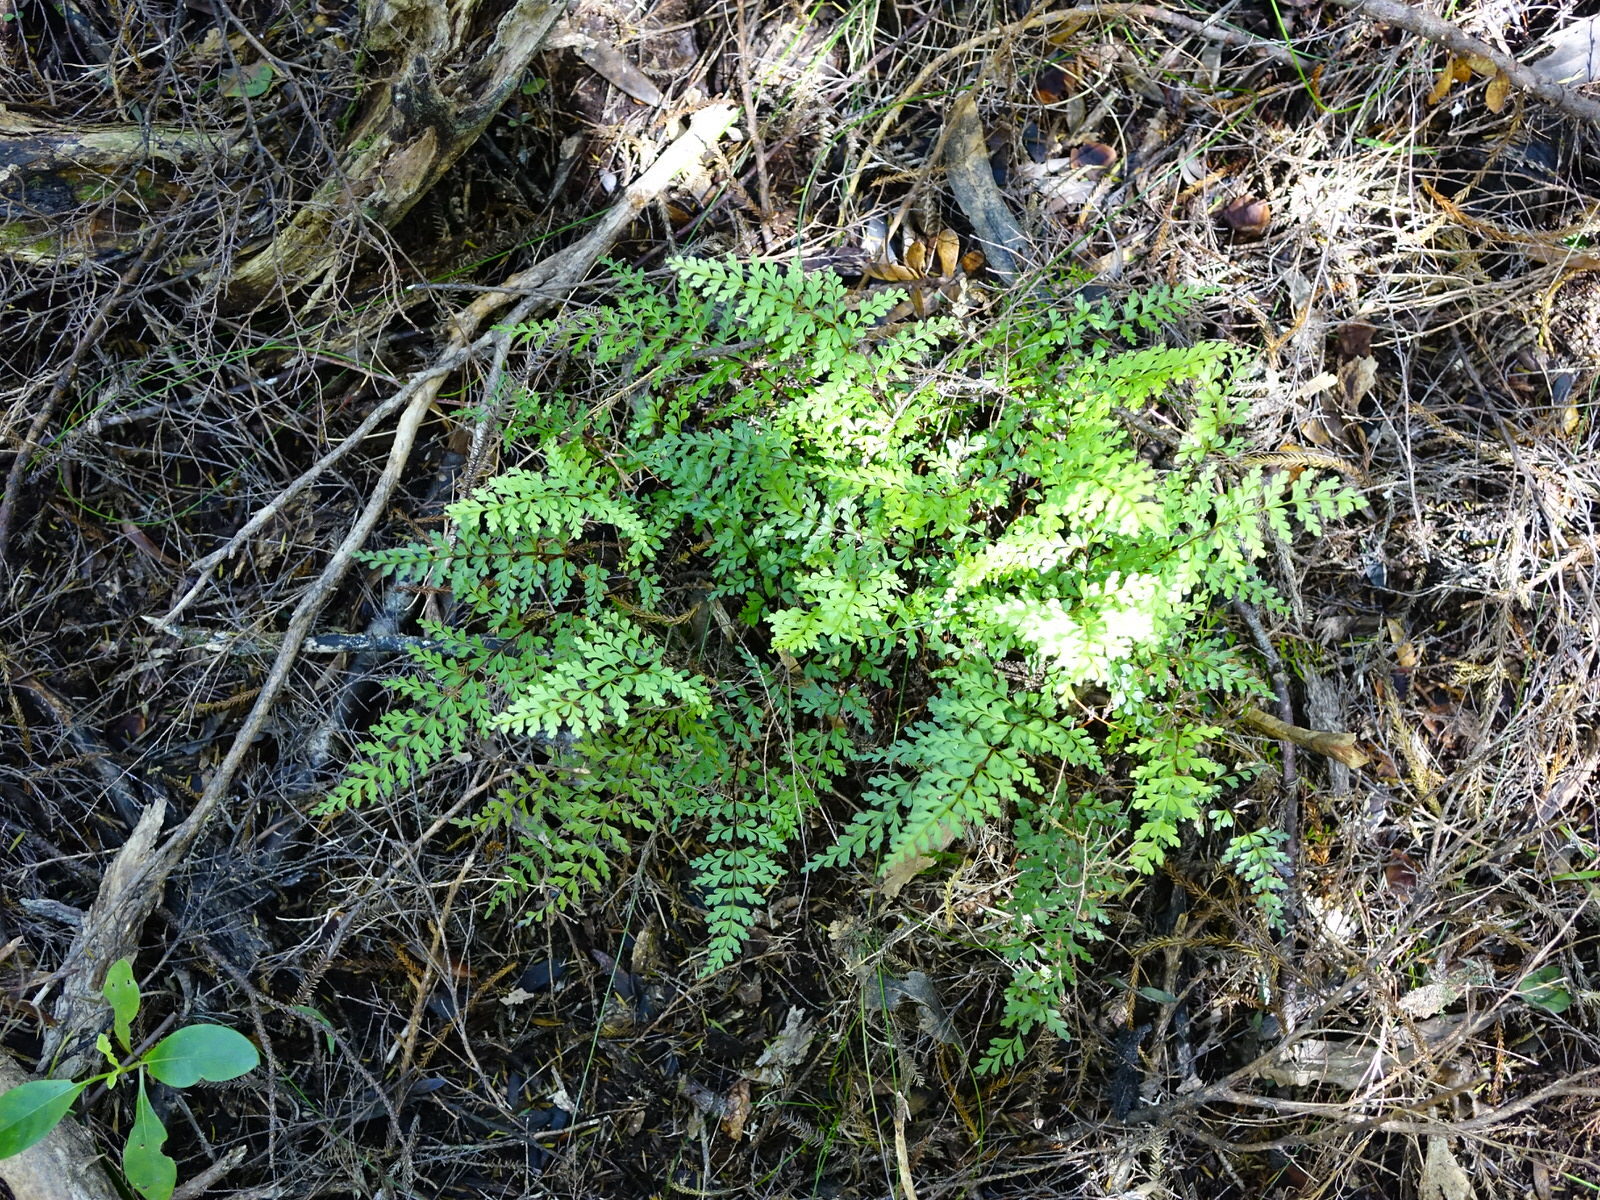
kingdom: Plantae
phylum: Tracheophyta
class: Polypodiopsida
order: Polypodiales
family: Lindsaeaceae
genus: Lindsaea
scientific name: Lindsaea trichomanoides
